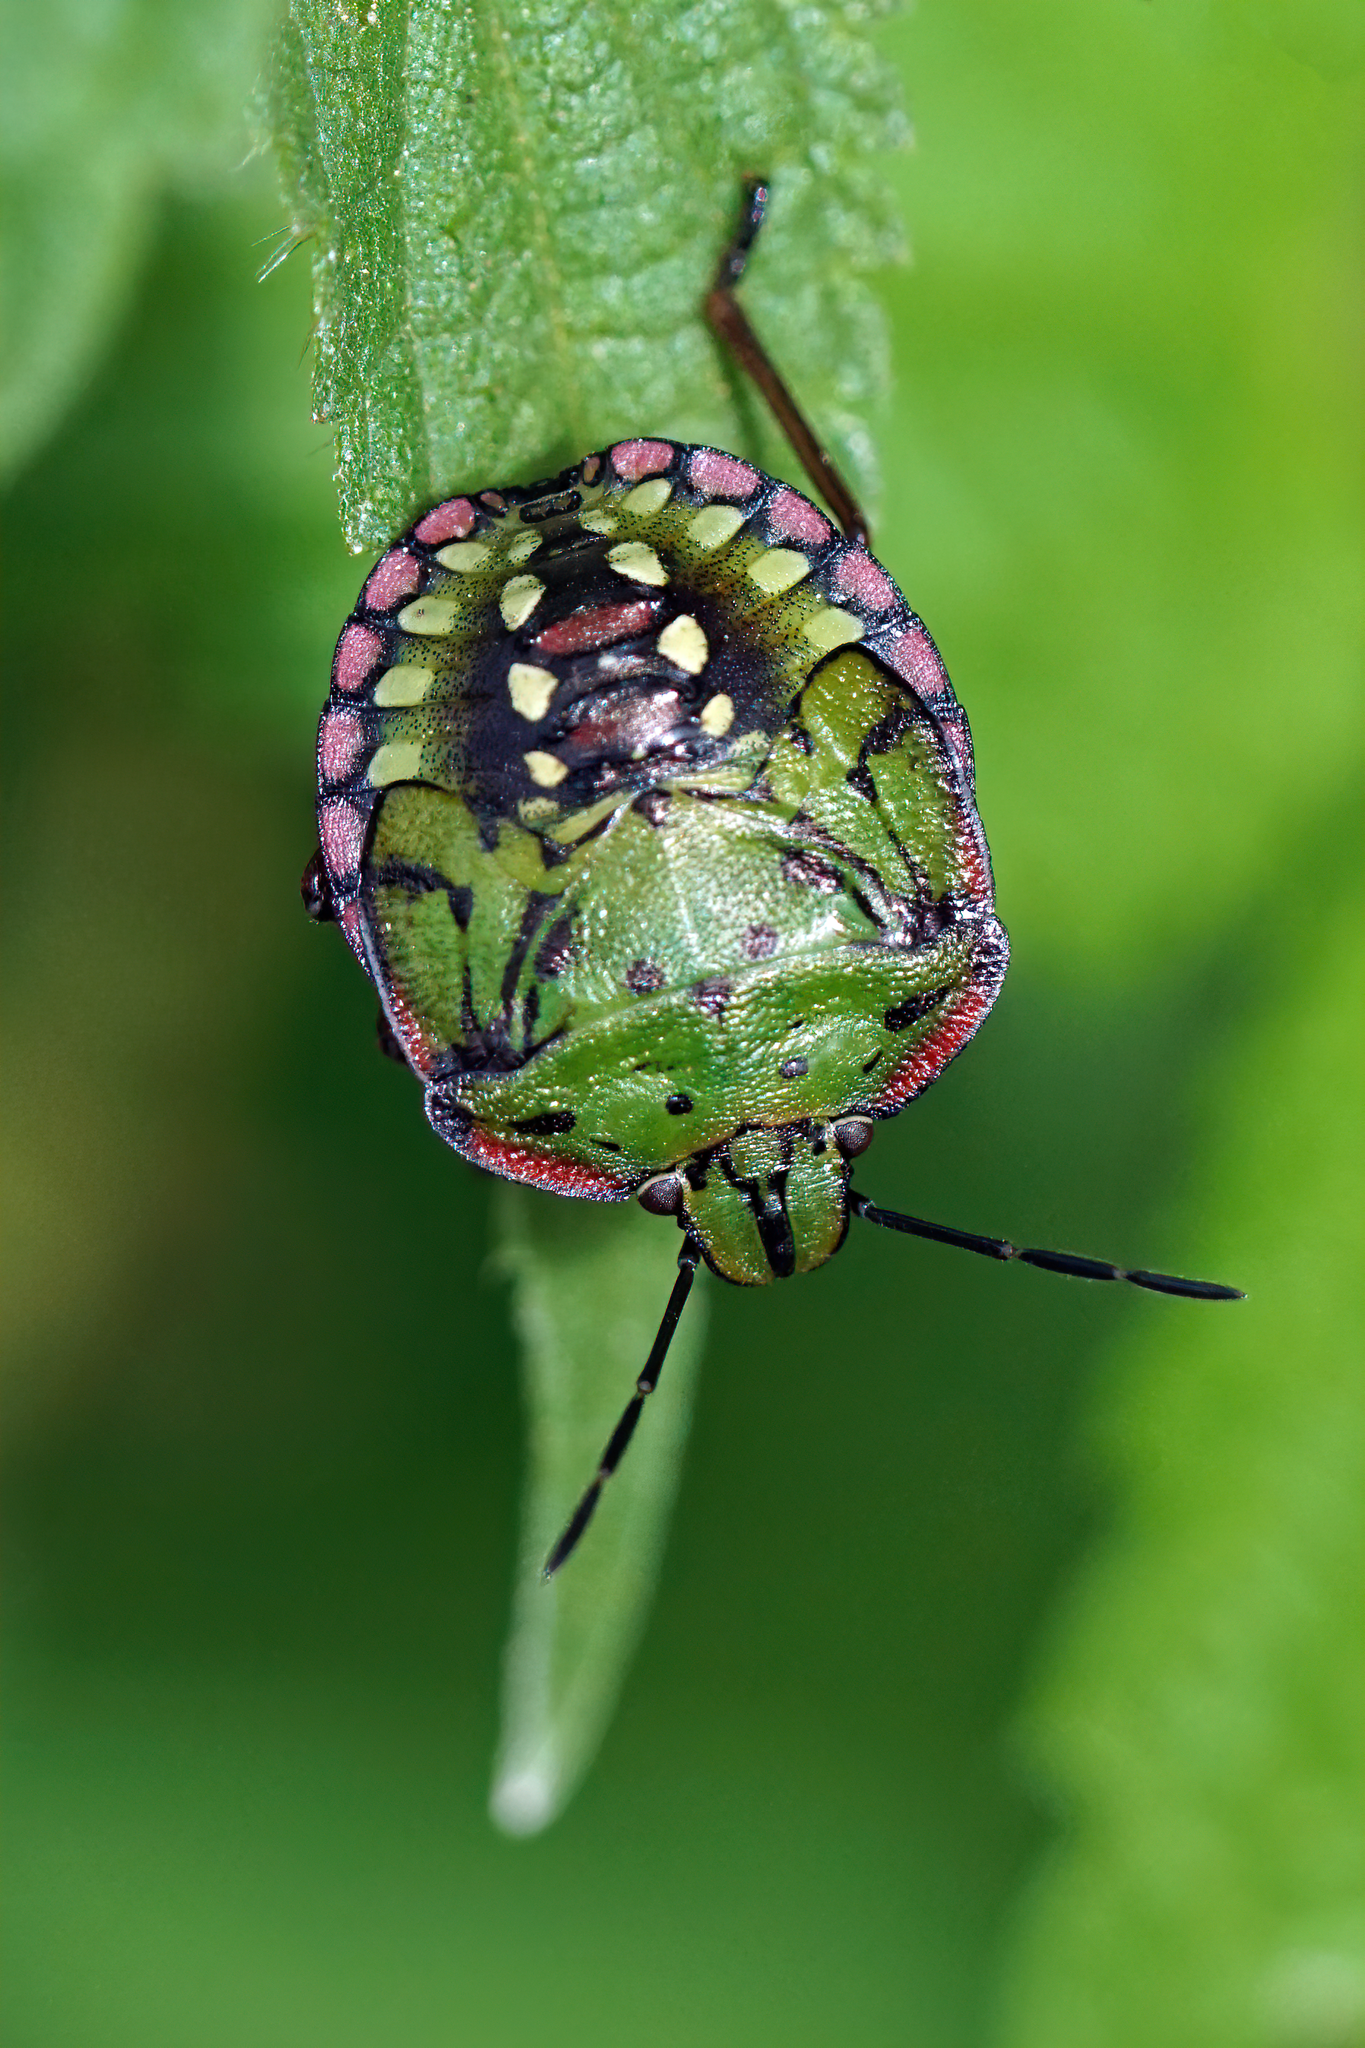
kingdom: Animalia
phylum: Arthropoda
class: Insecta
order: Hemiptera
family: Pentatomidae
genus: Nezara
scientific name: Nezara viridula
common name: Southern green stink bug
